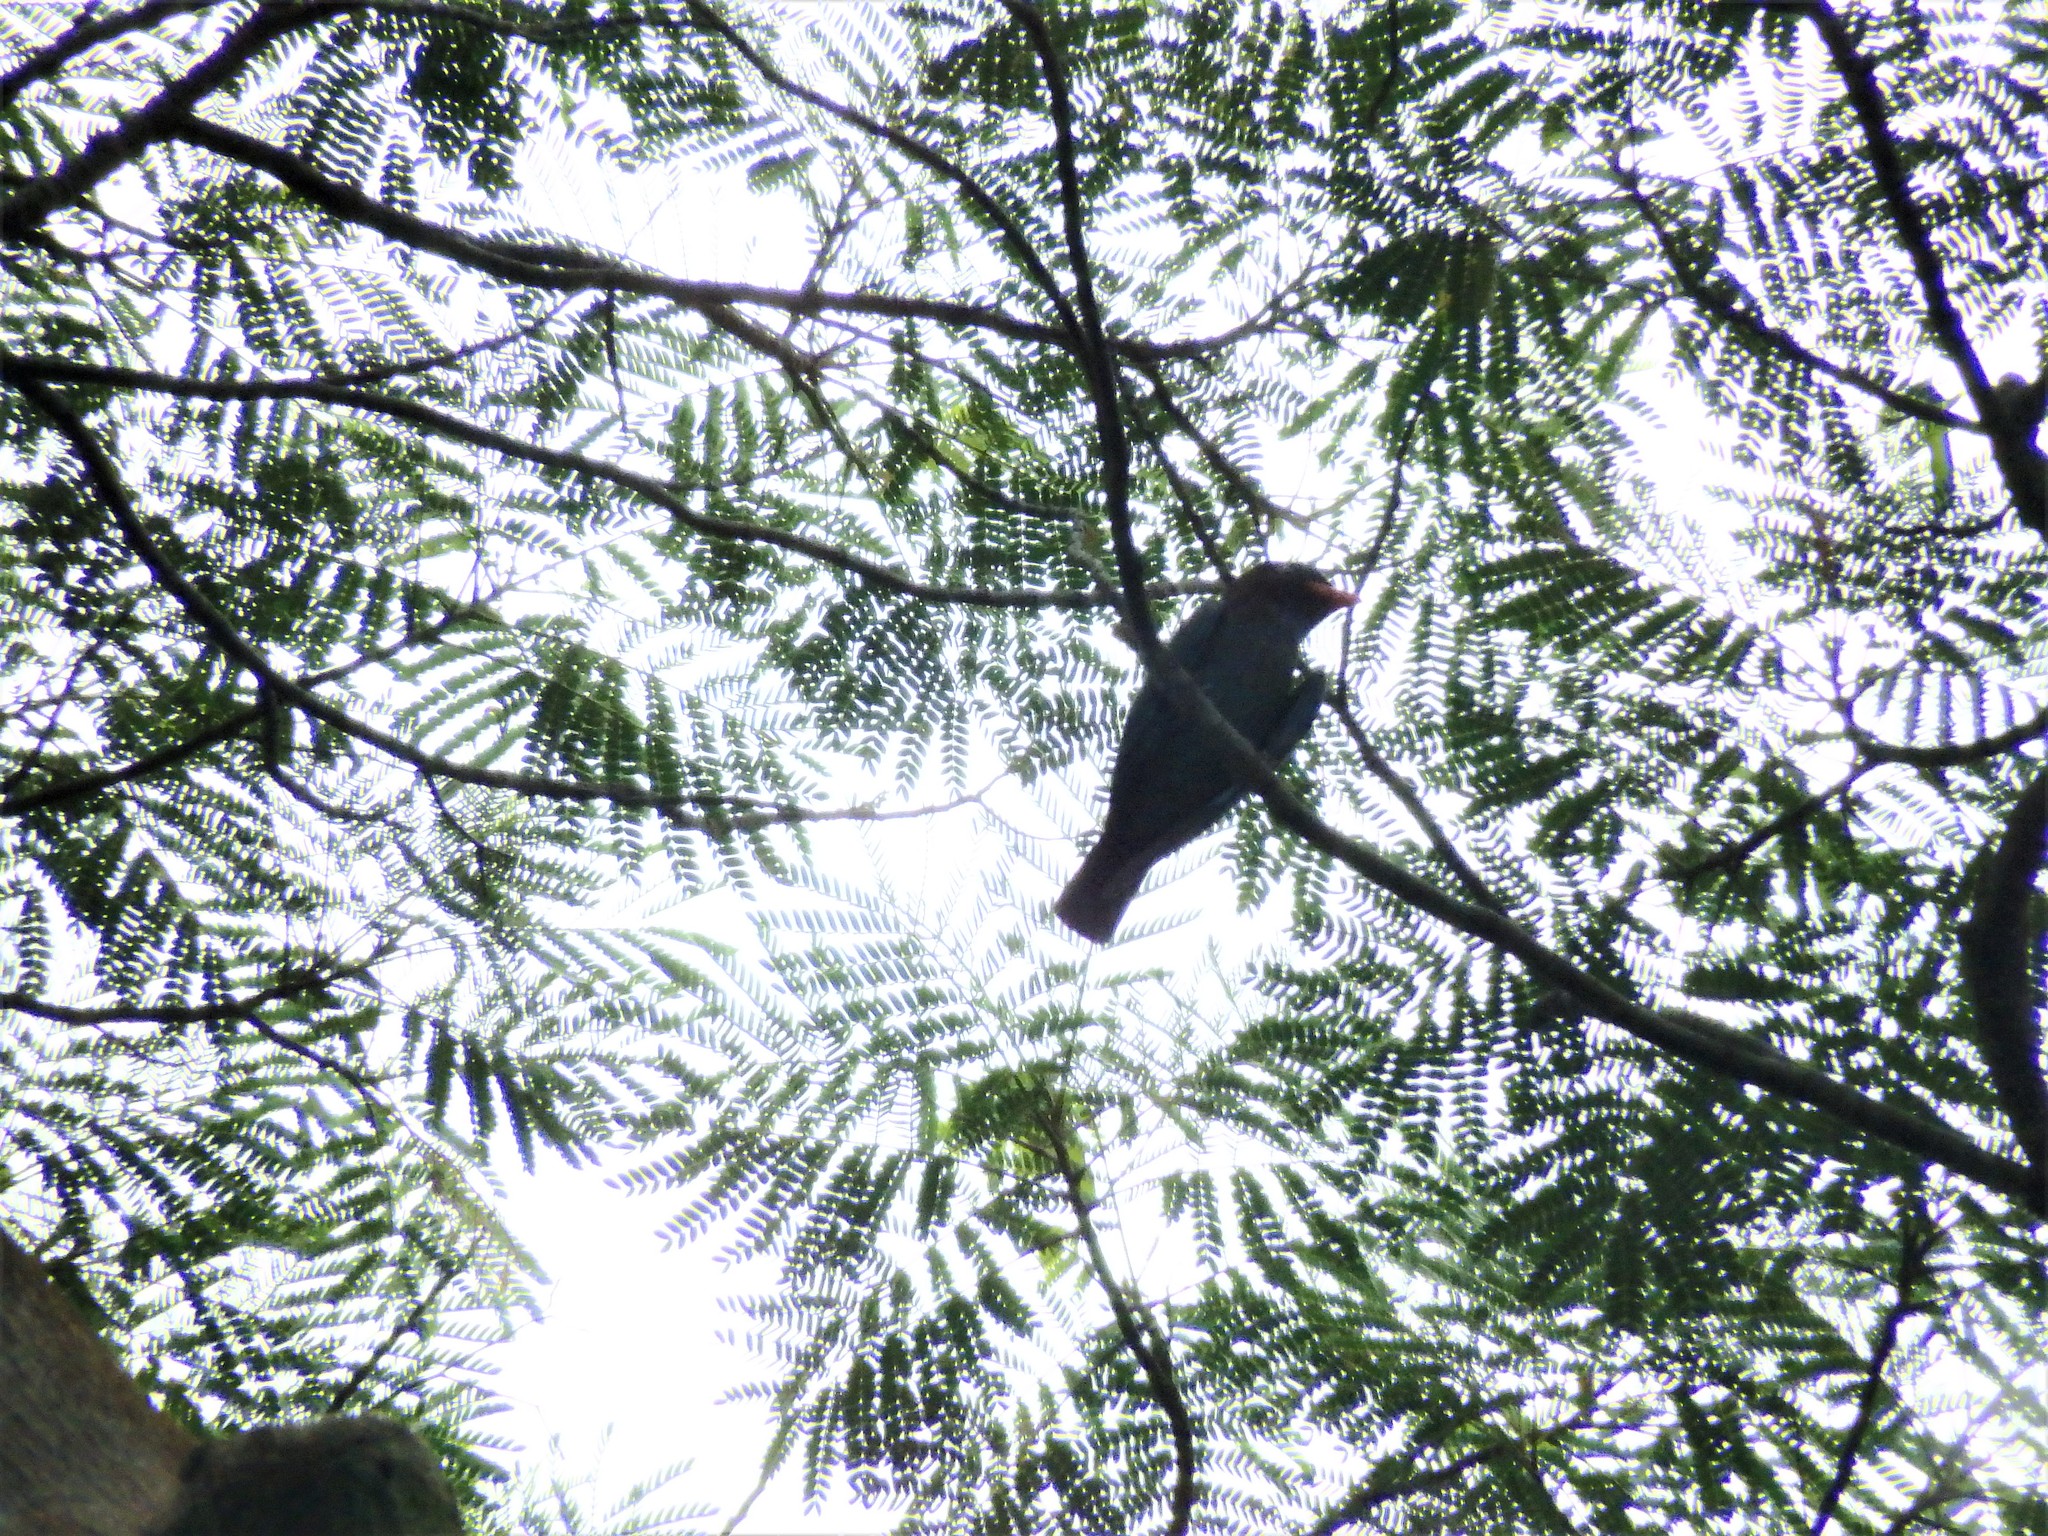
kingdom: Animalia
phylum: Chordata
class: Aves
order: Coraciiformes
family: Coraciidae
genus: Eurystomus
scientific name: Eurystomus orientalis
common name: Oriental dollarbird
